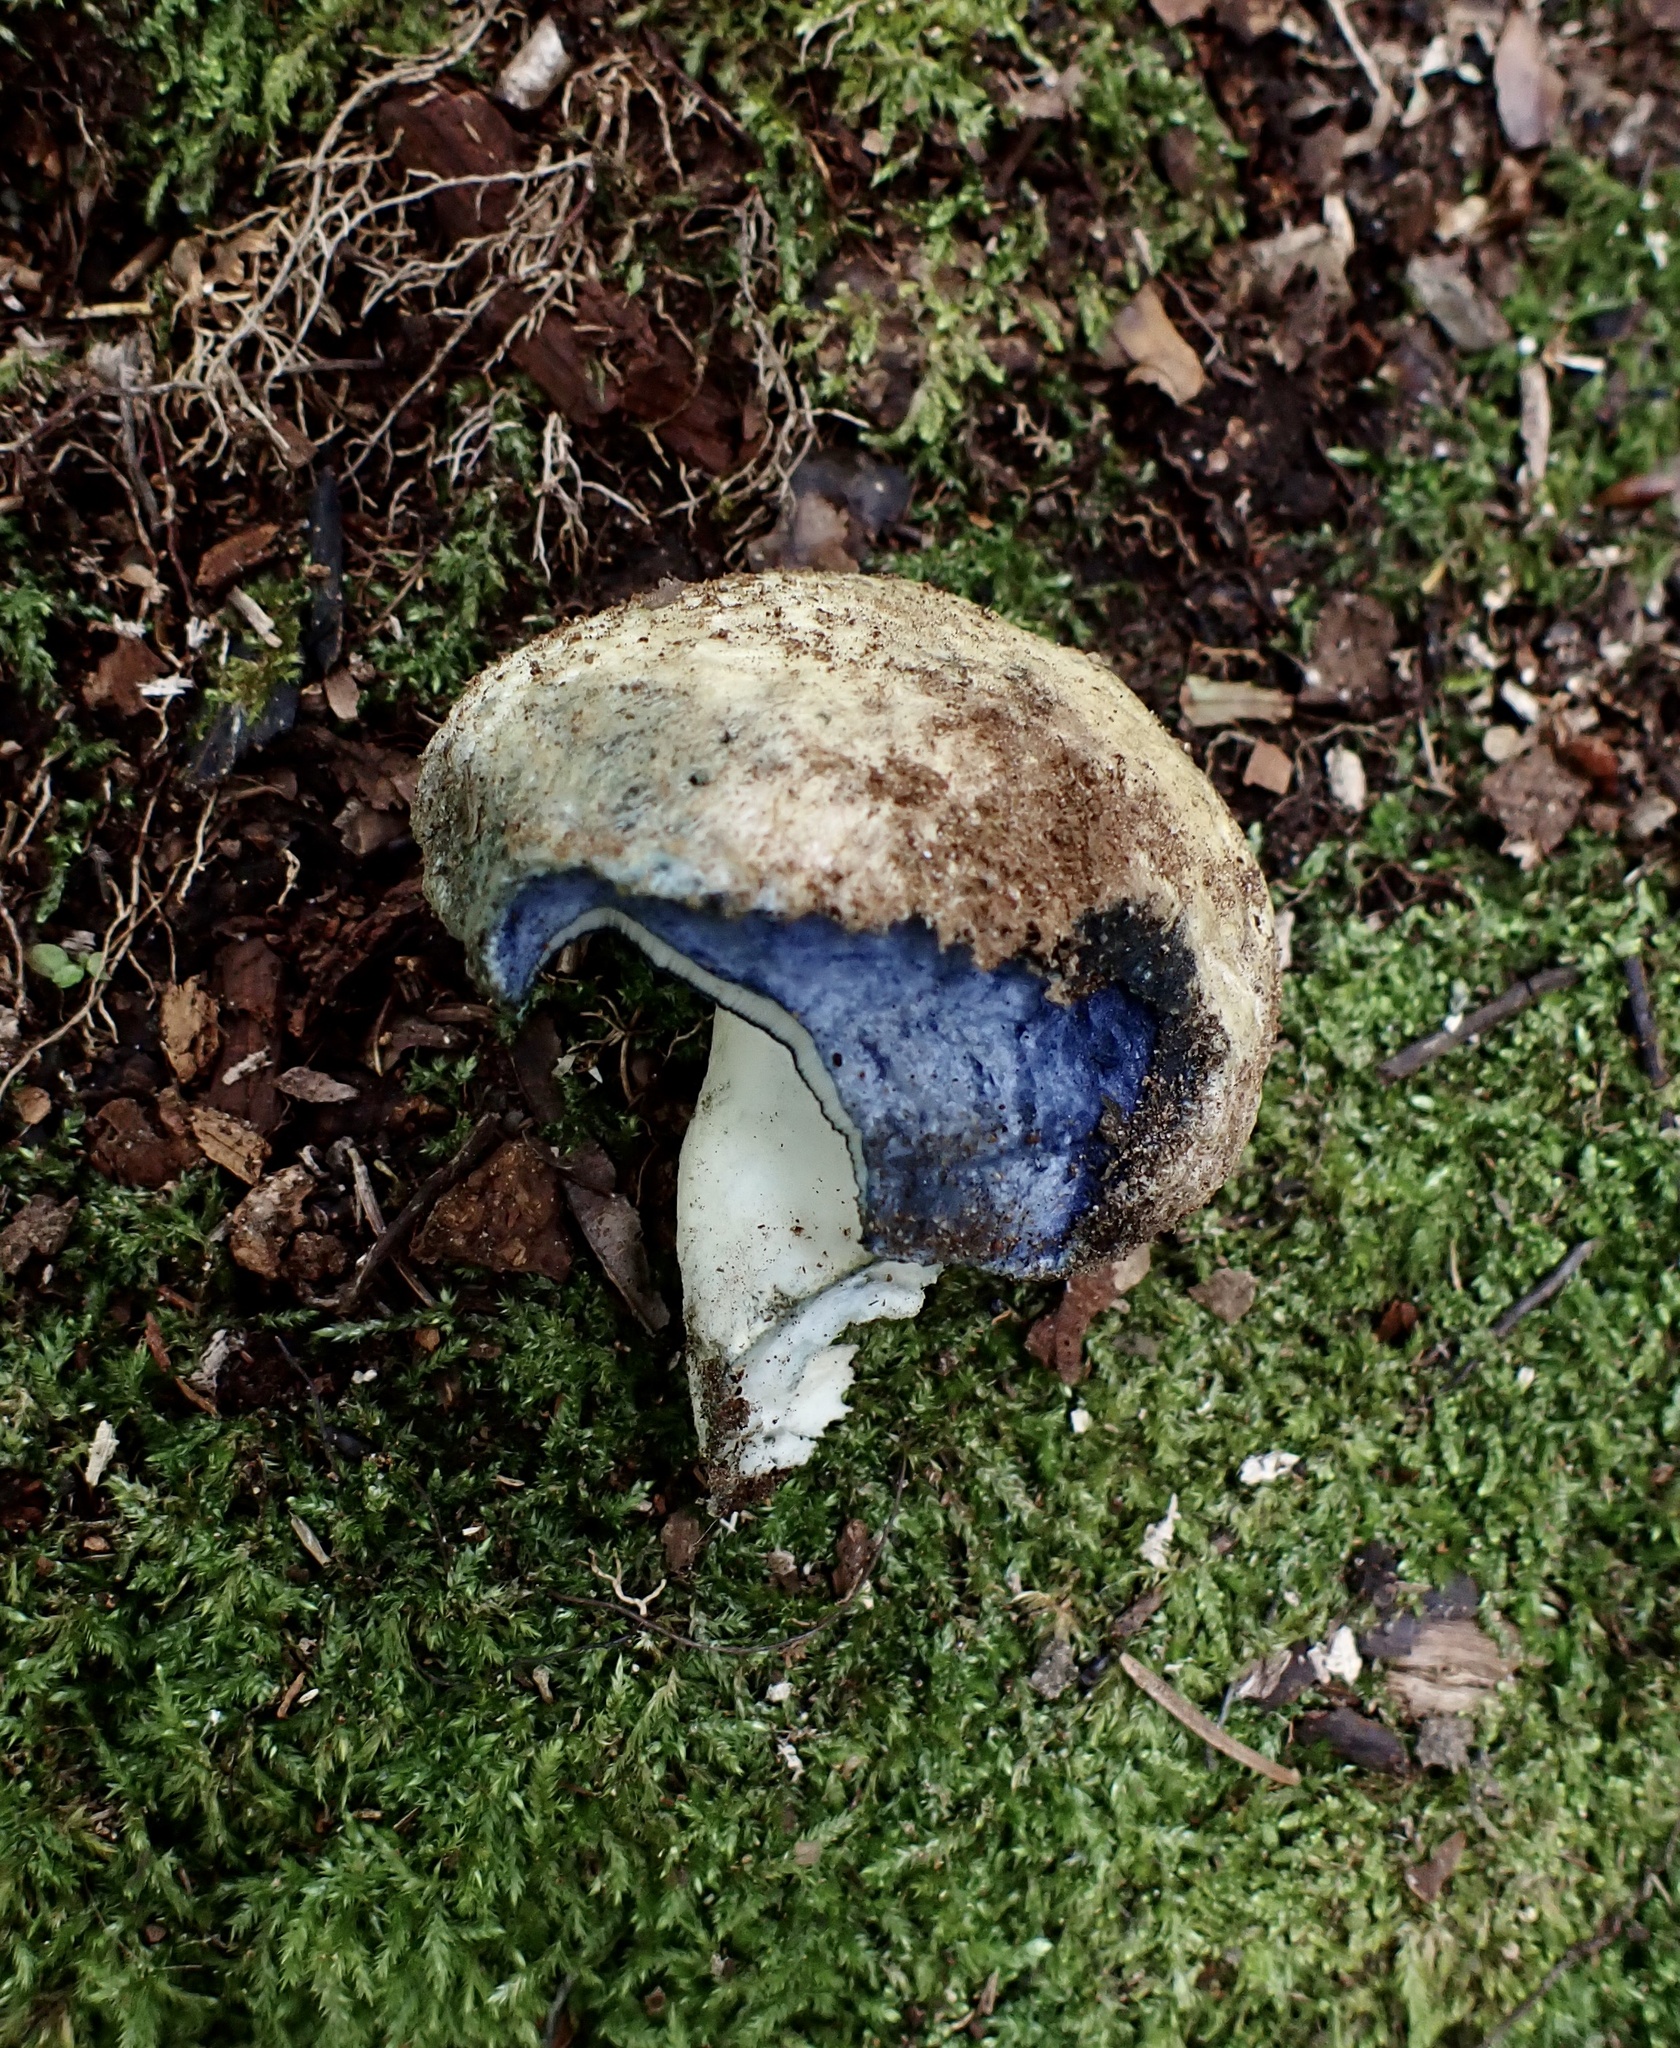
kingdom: Fungi
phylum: Basidiomycota
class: Agaricomycetes
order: Boletales
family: Gyroporaceae
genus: Gyroporus
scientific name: Gyroporus cyanescens
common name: Cornflower bolete
